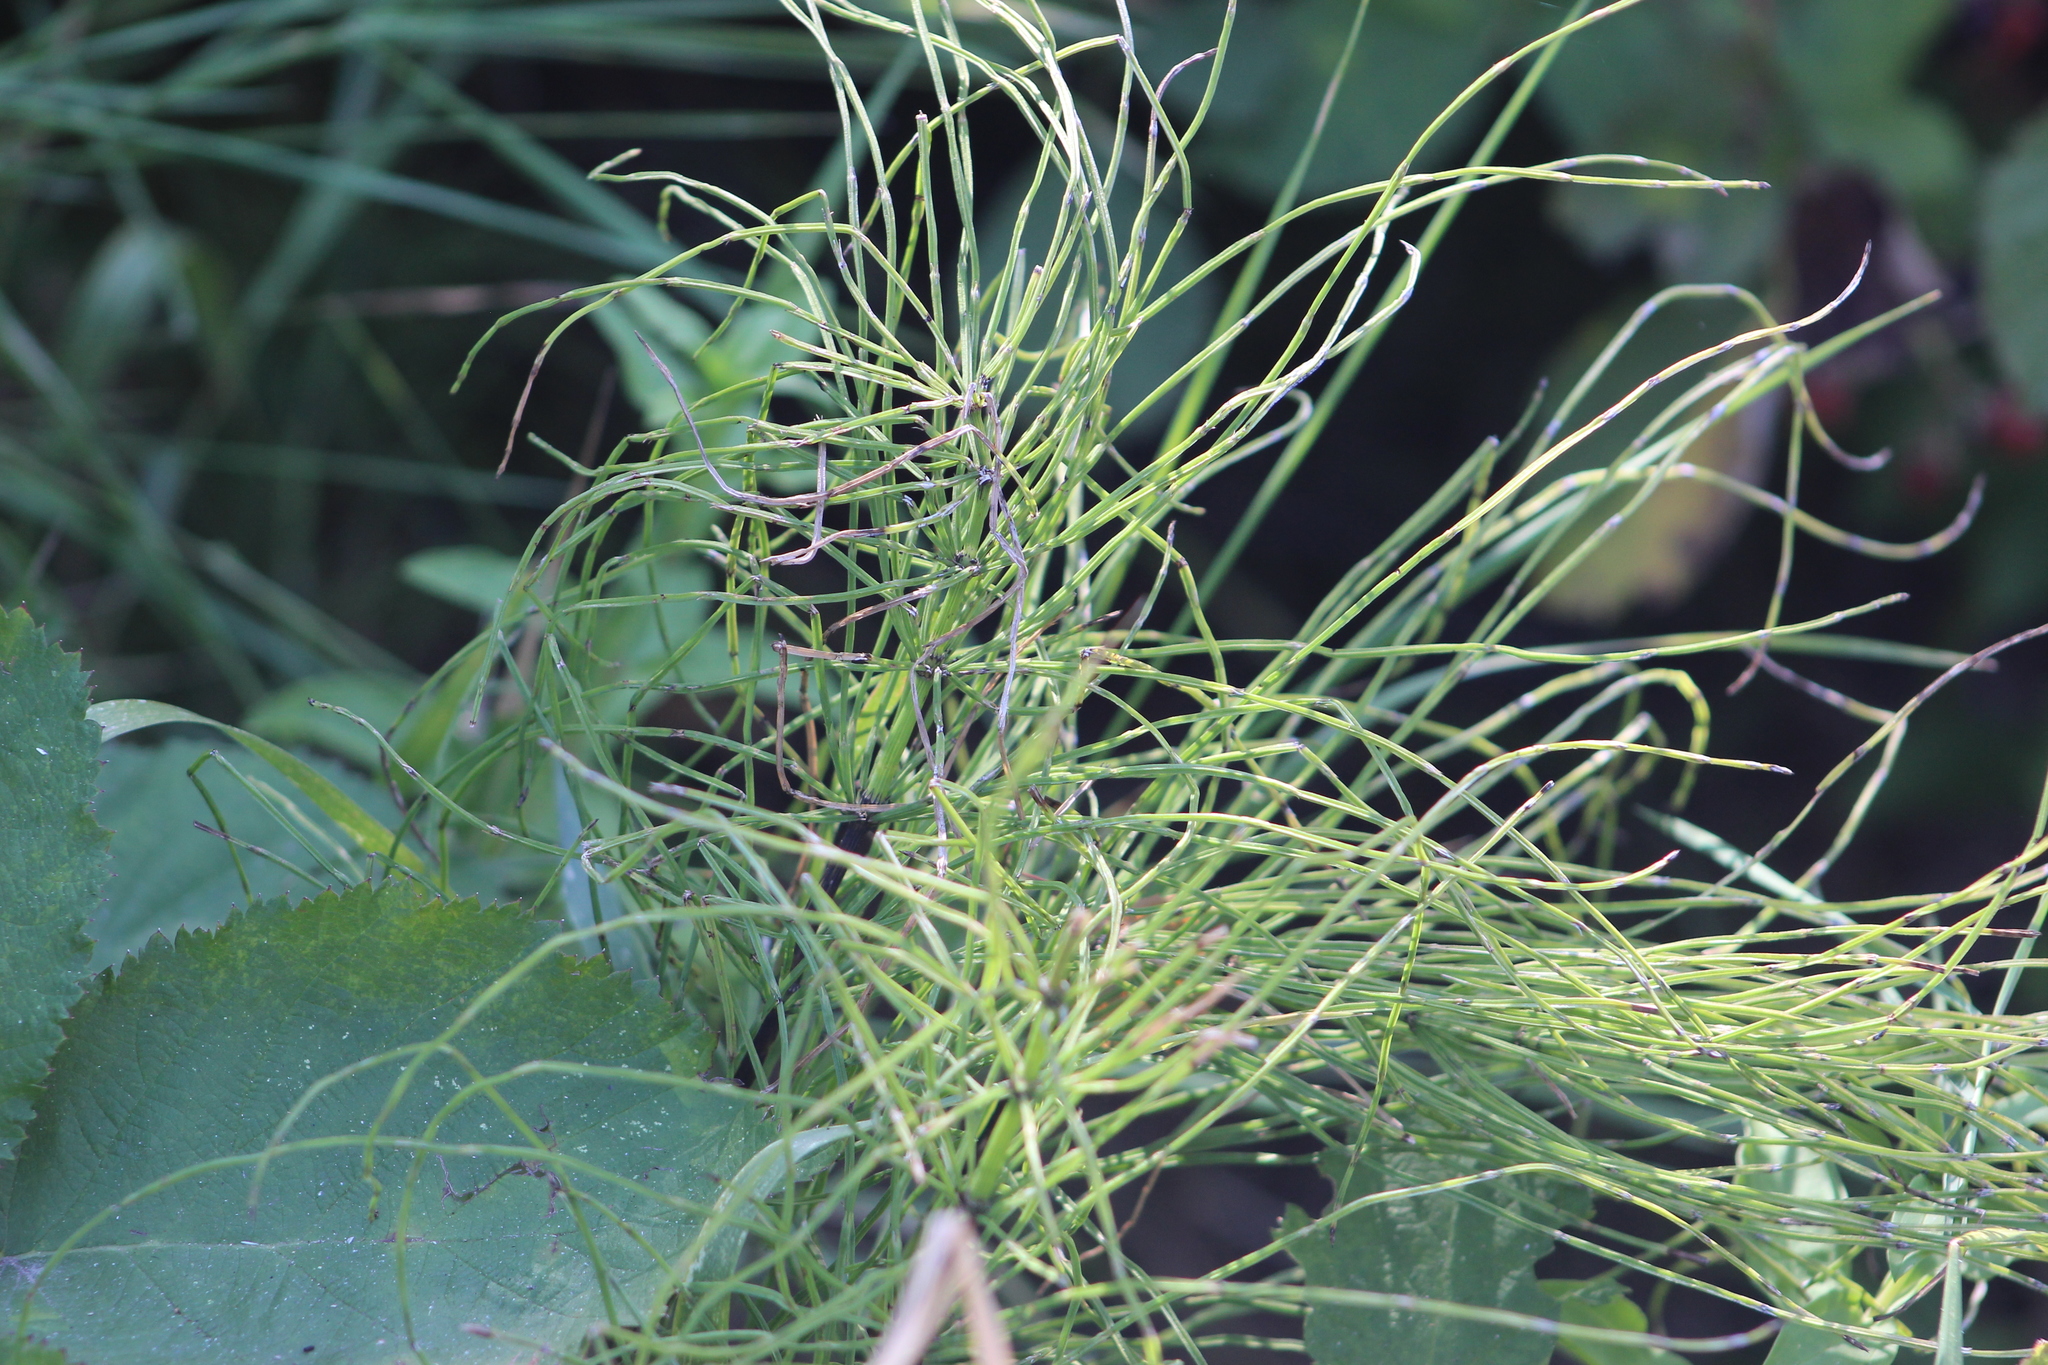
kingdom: Plantae
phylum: Tracheophyta
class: Polypodiopsida
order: Equisetales
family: Equisetaceae
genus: Equisetum
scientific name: Equisetum arvense
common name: Field horsetail
